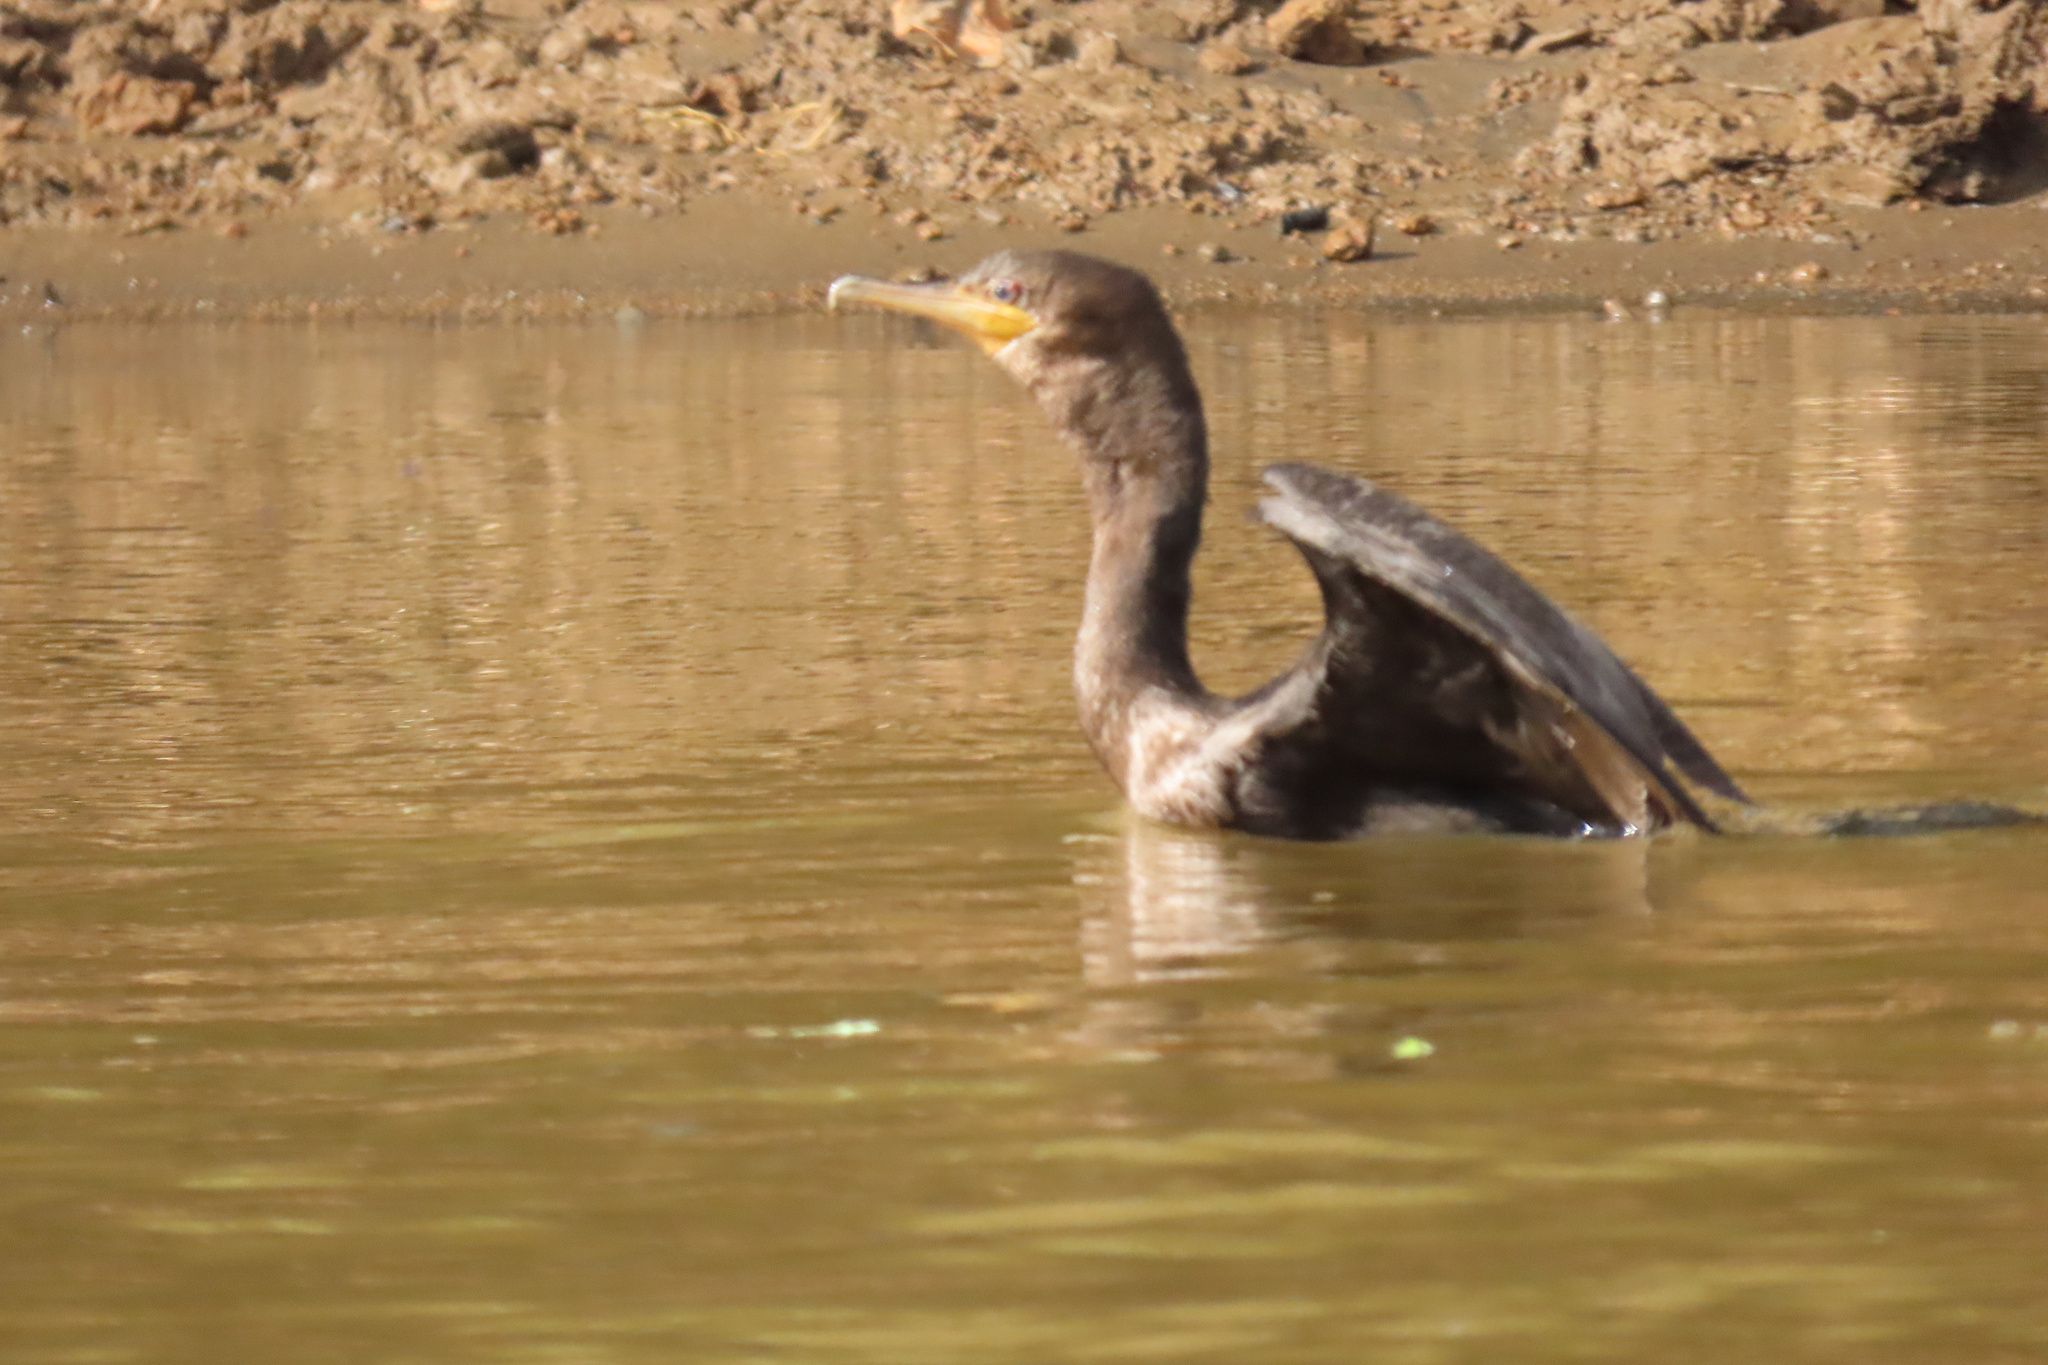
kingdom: Animalia
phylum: Chordata
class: Aves
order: Suliformes
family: Phalacrocoracidae
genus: Phalacrocorax
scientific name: Phalacrocorax brasilianus
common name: Neotropic cormorant
